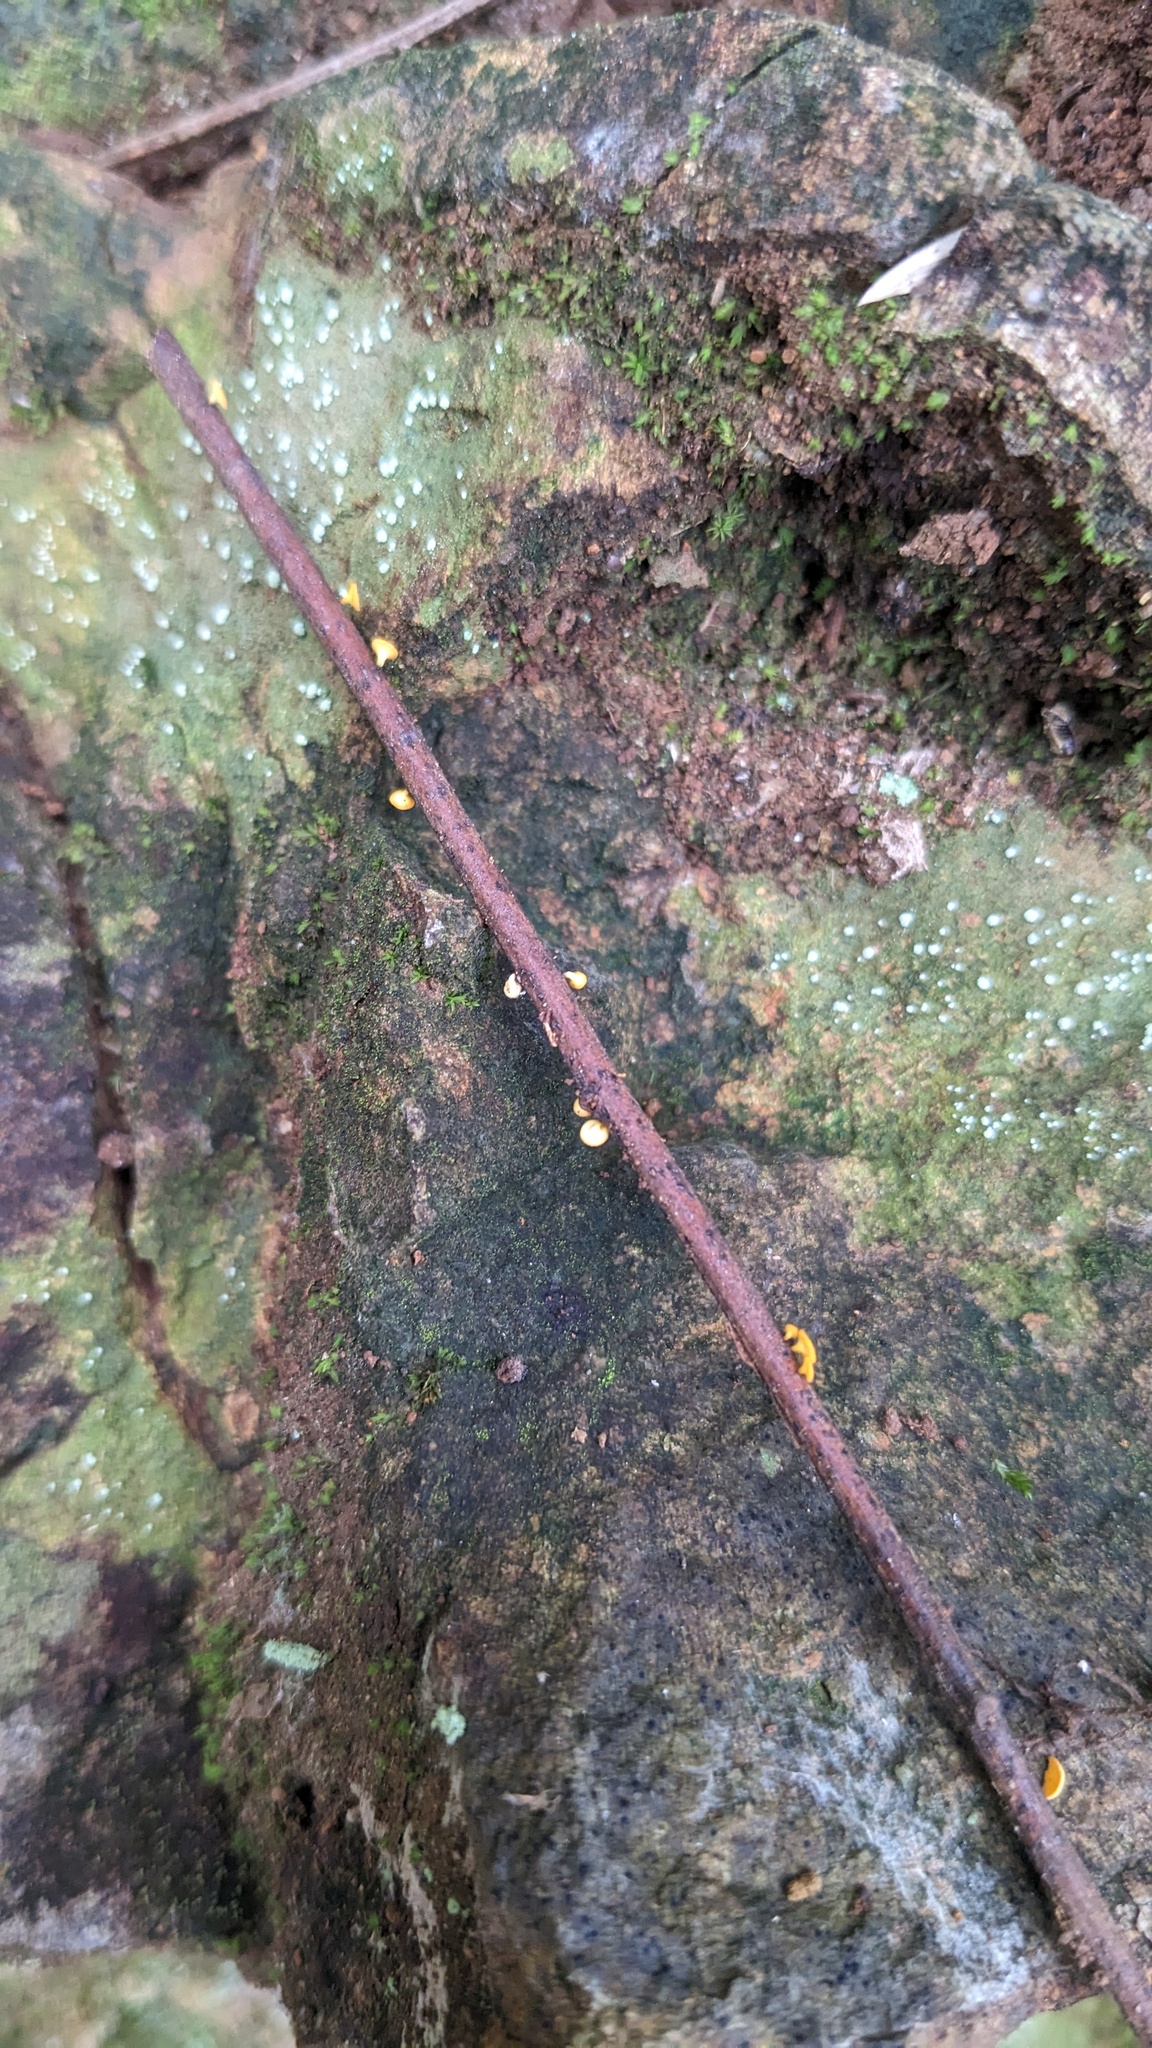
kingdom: Fungi
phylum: Ascomycota
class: Leotiomycetes
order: Helotiales
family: Helotiaceae
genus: Dicephalospora
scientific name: Dicephalospora rufocornea
